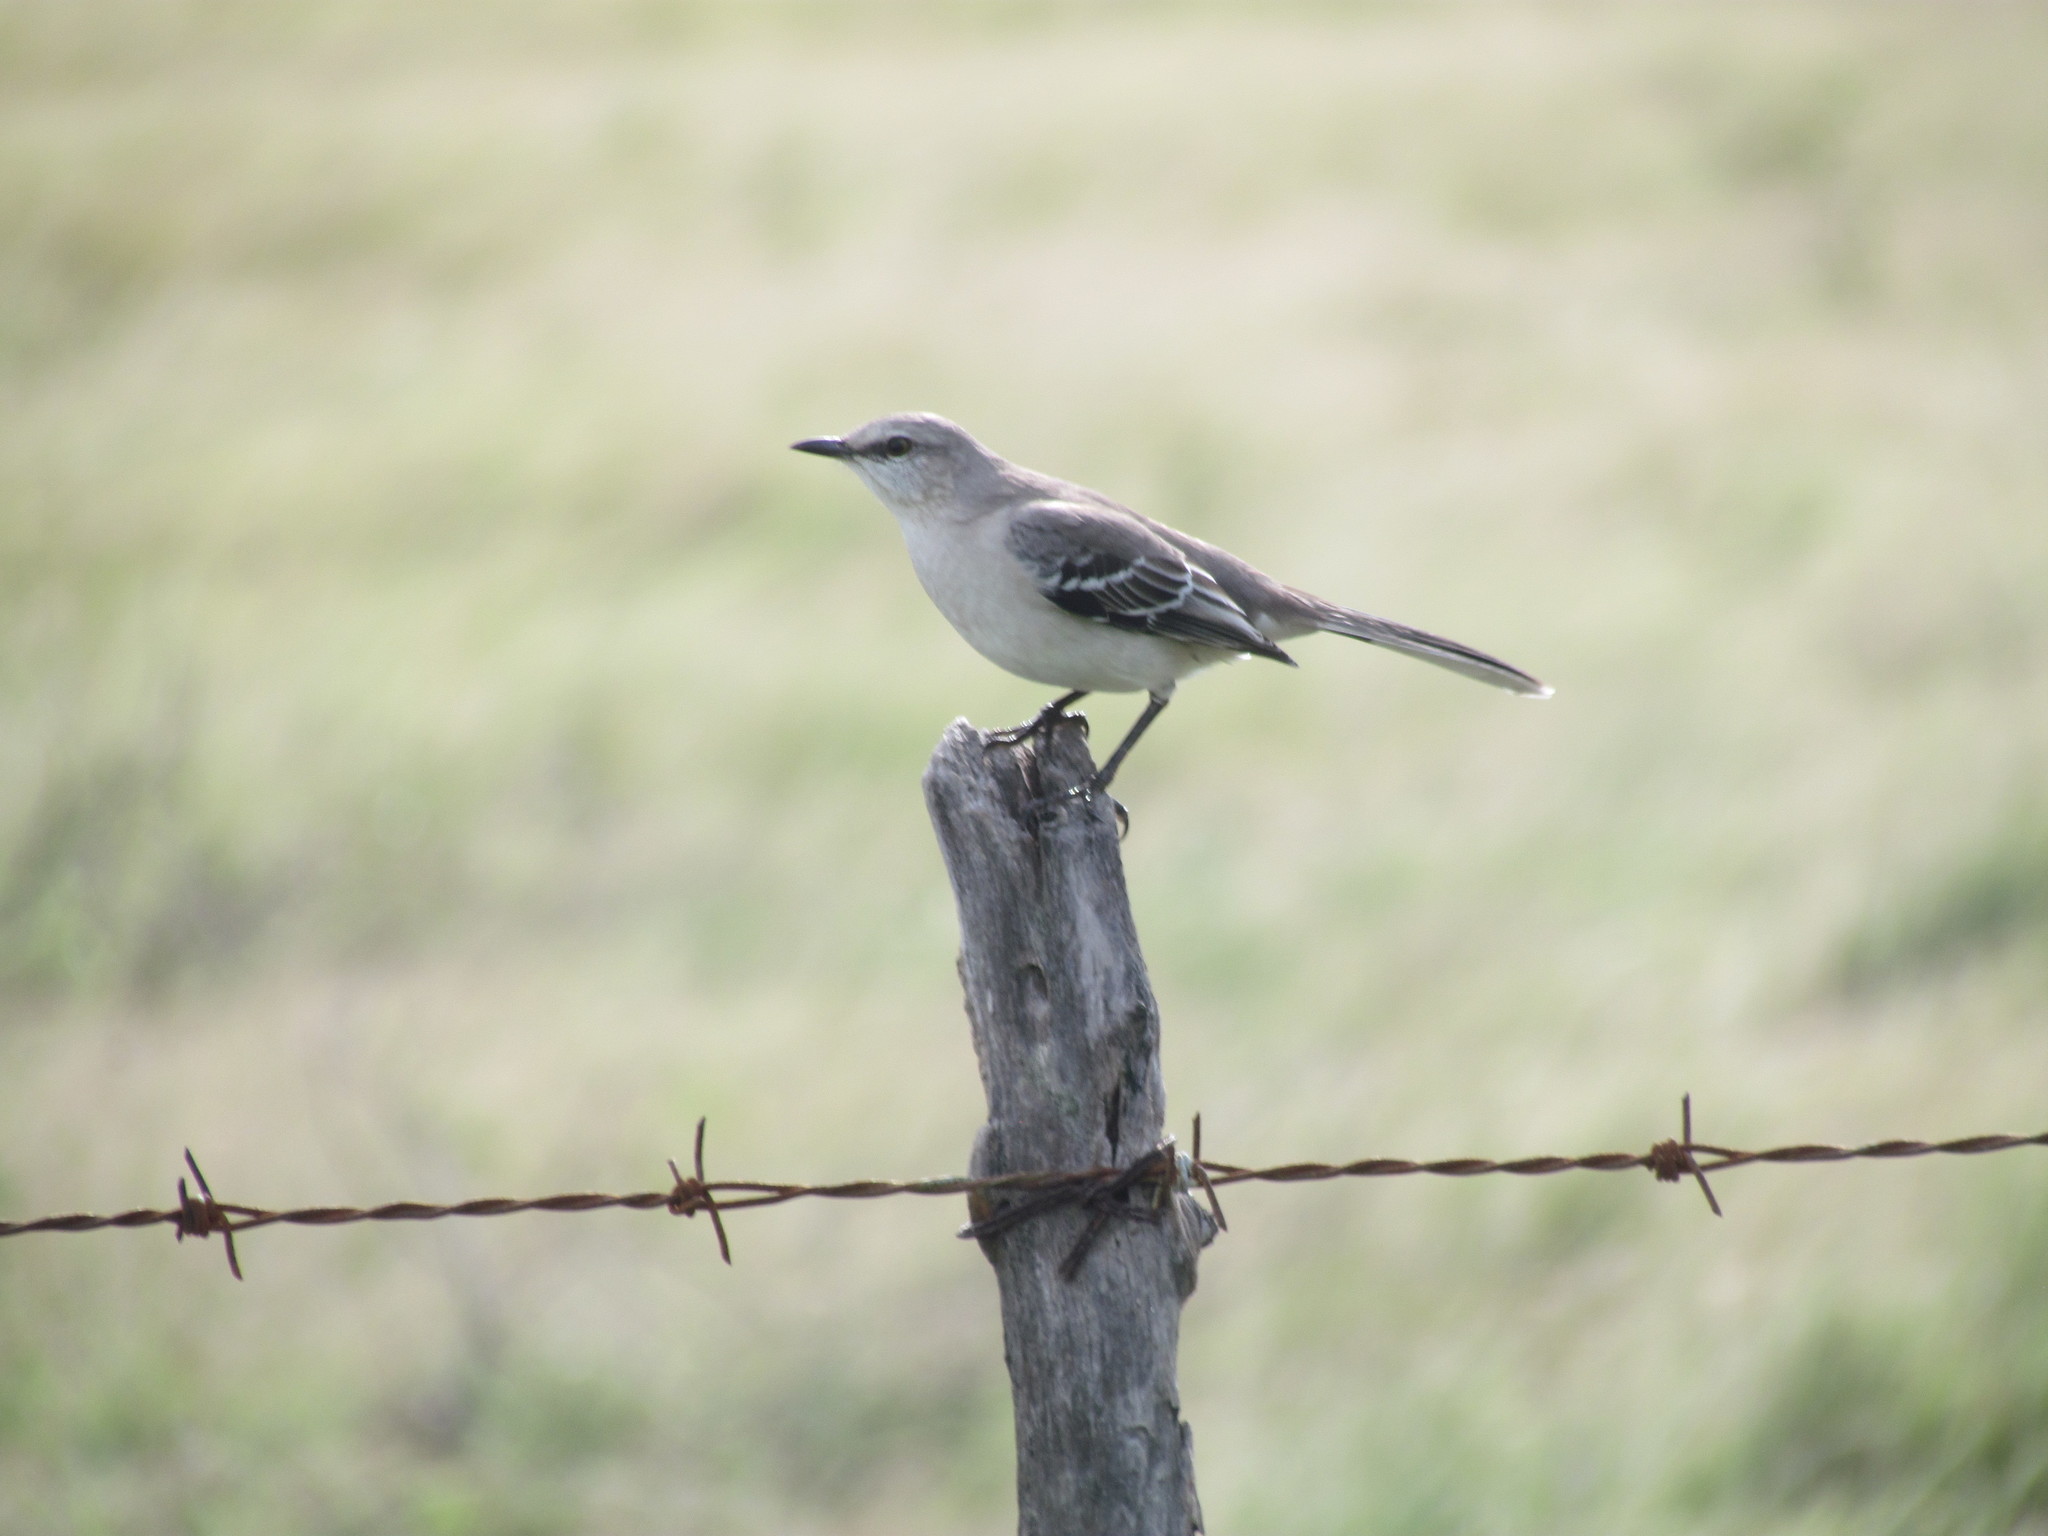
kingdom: Animalia
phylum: Chordata
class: Aves
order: Passeriformes
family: Mimidae
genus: Mimus
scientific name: Mimus gilvus
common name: Tropical mockingbird
